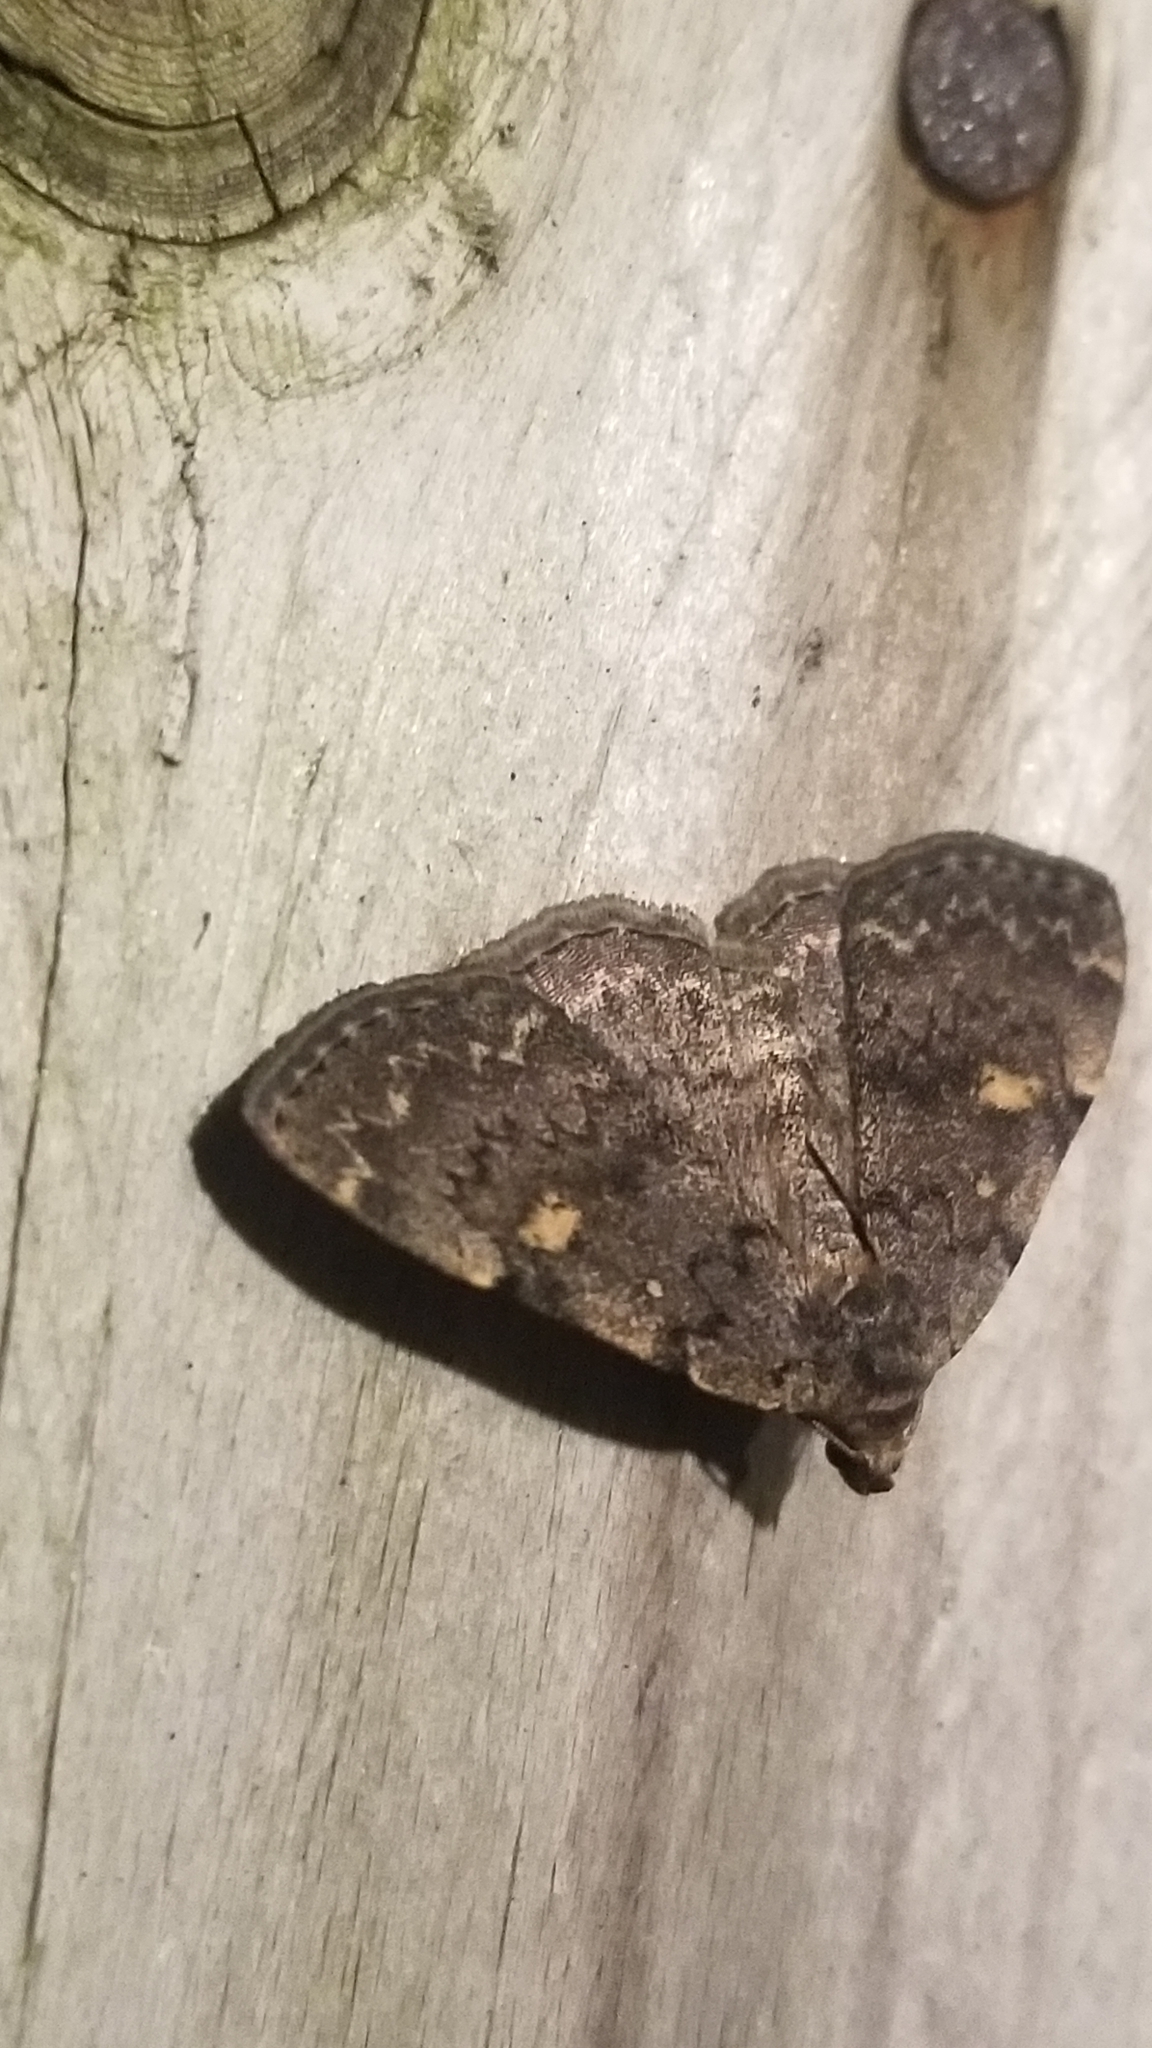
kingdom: Animalia
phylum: Arthropoda
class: Insecta
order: Lepidoptera
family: Erebidae
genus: Idia
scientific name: Idia aemula
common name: Common idia moth
